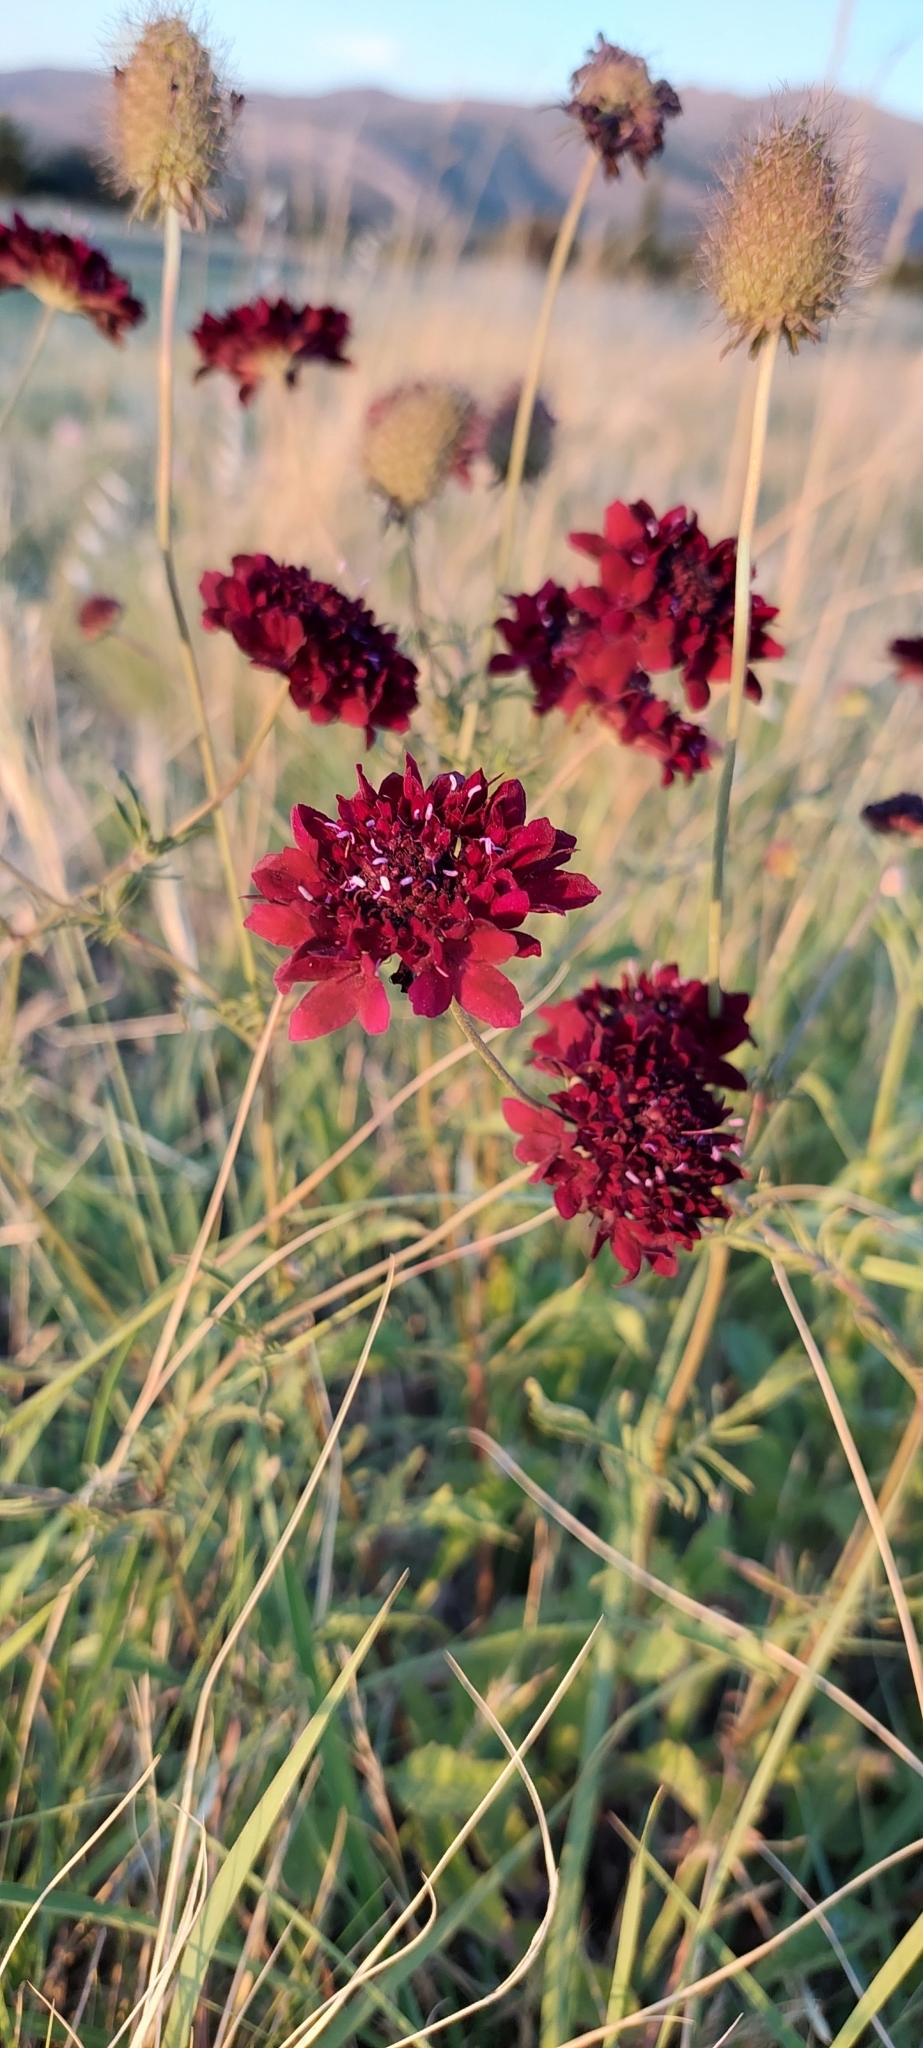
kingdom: Plantae
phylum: Tracheophyta
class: Magnoliopsida
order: Dipsacales
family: Caprifoliaceae
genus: Sixalix
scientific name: Sixalix atropurpurea
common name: Sweet scabious
